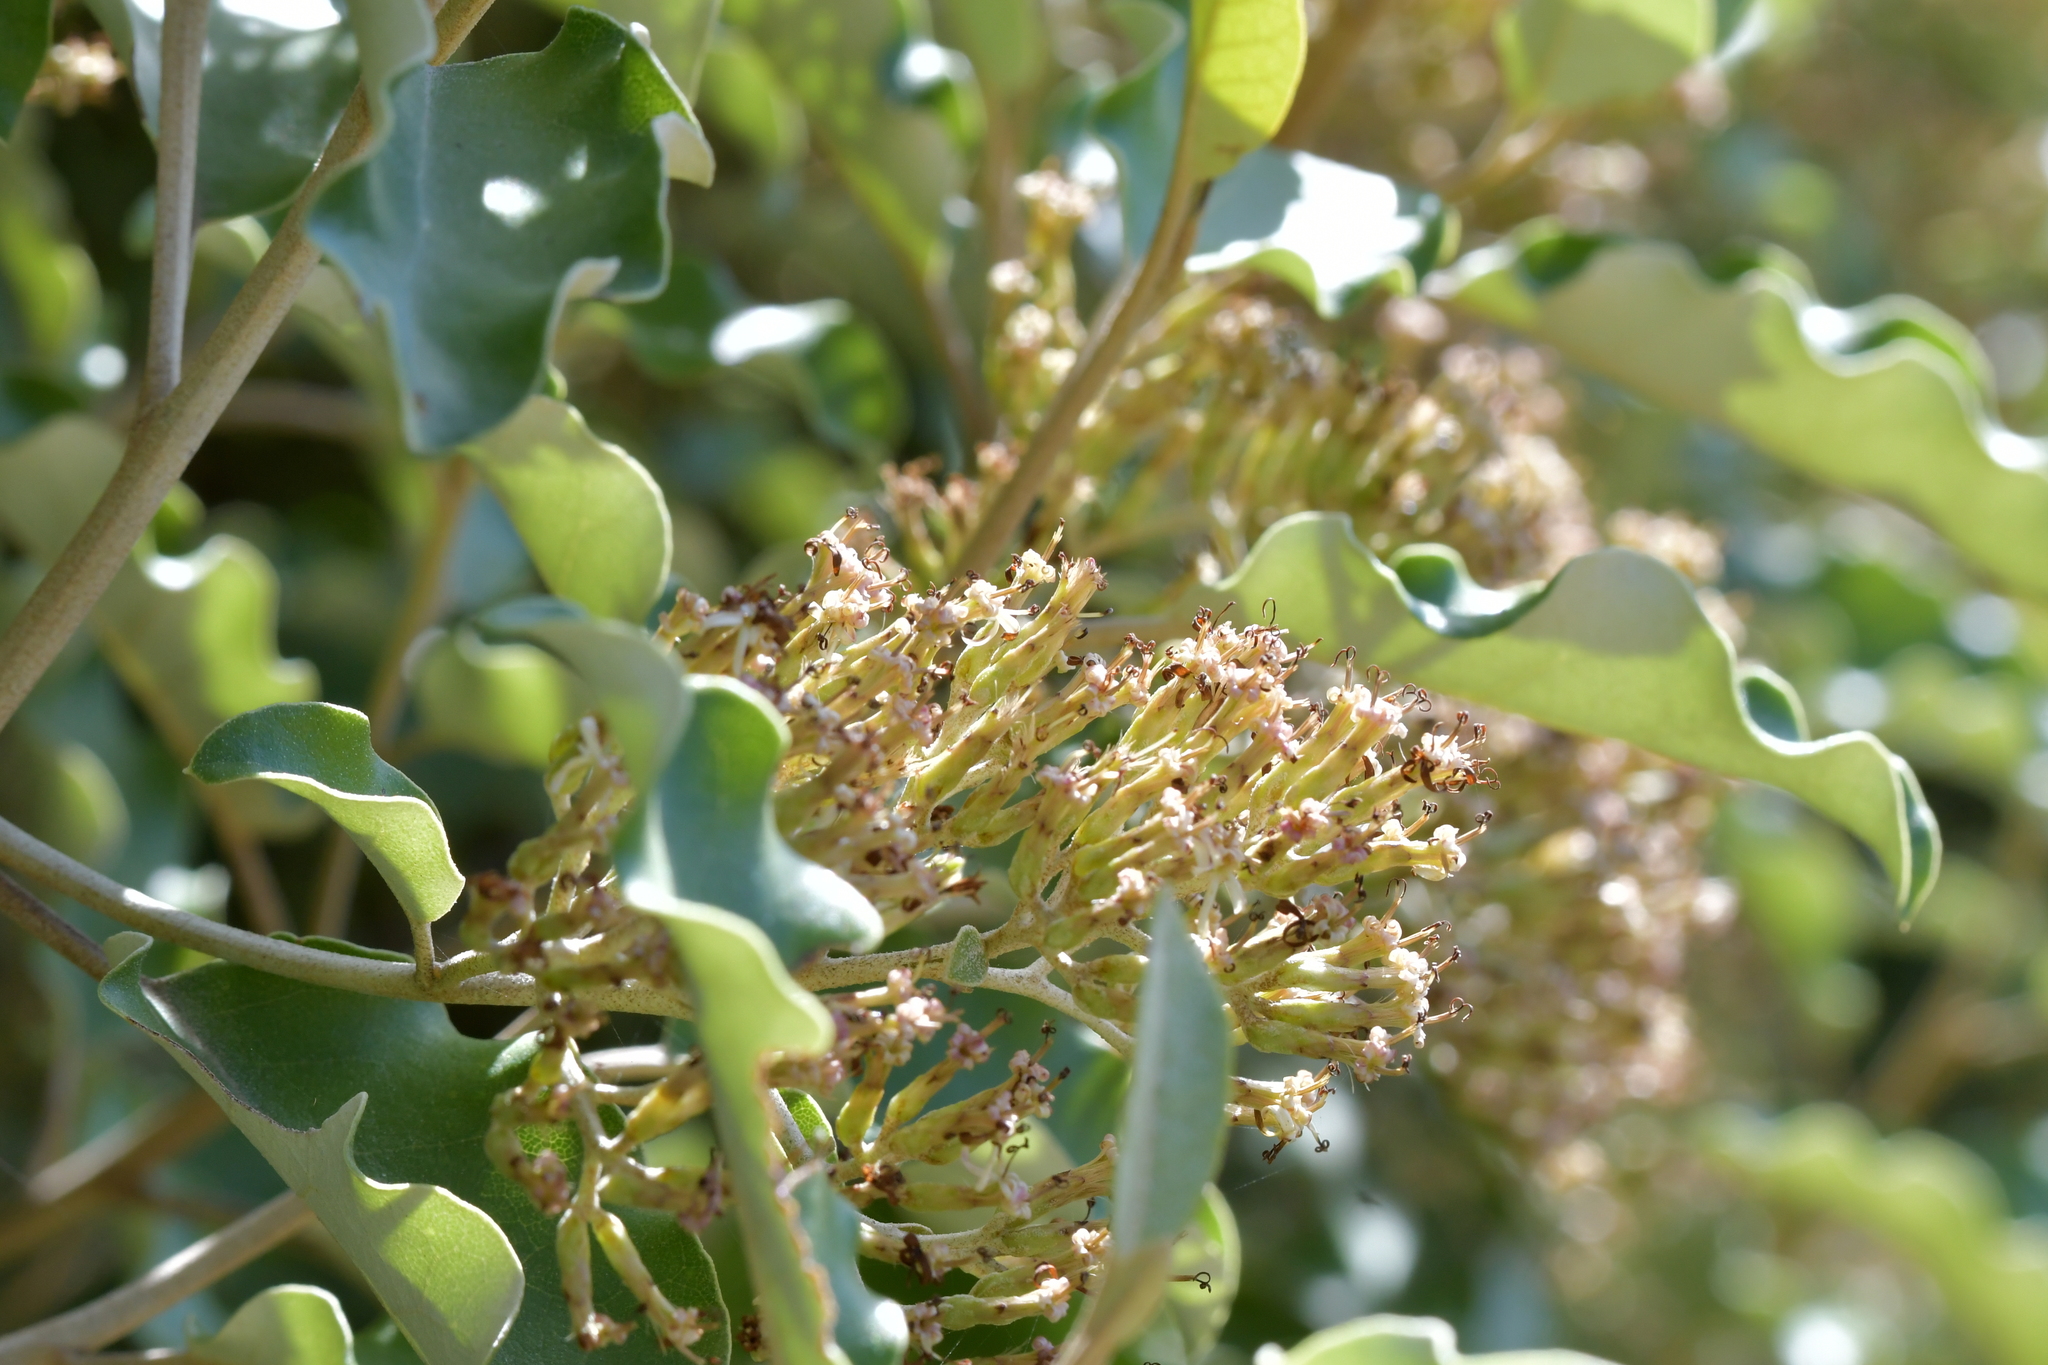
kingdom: Plantae
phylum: Tracheophyta
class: Magnoliopsida
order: Asterales
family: Asteraceae
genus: Olearia
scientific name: Olearia paniculata
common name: Akiraho
